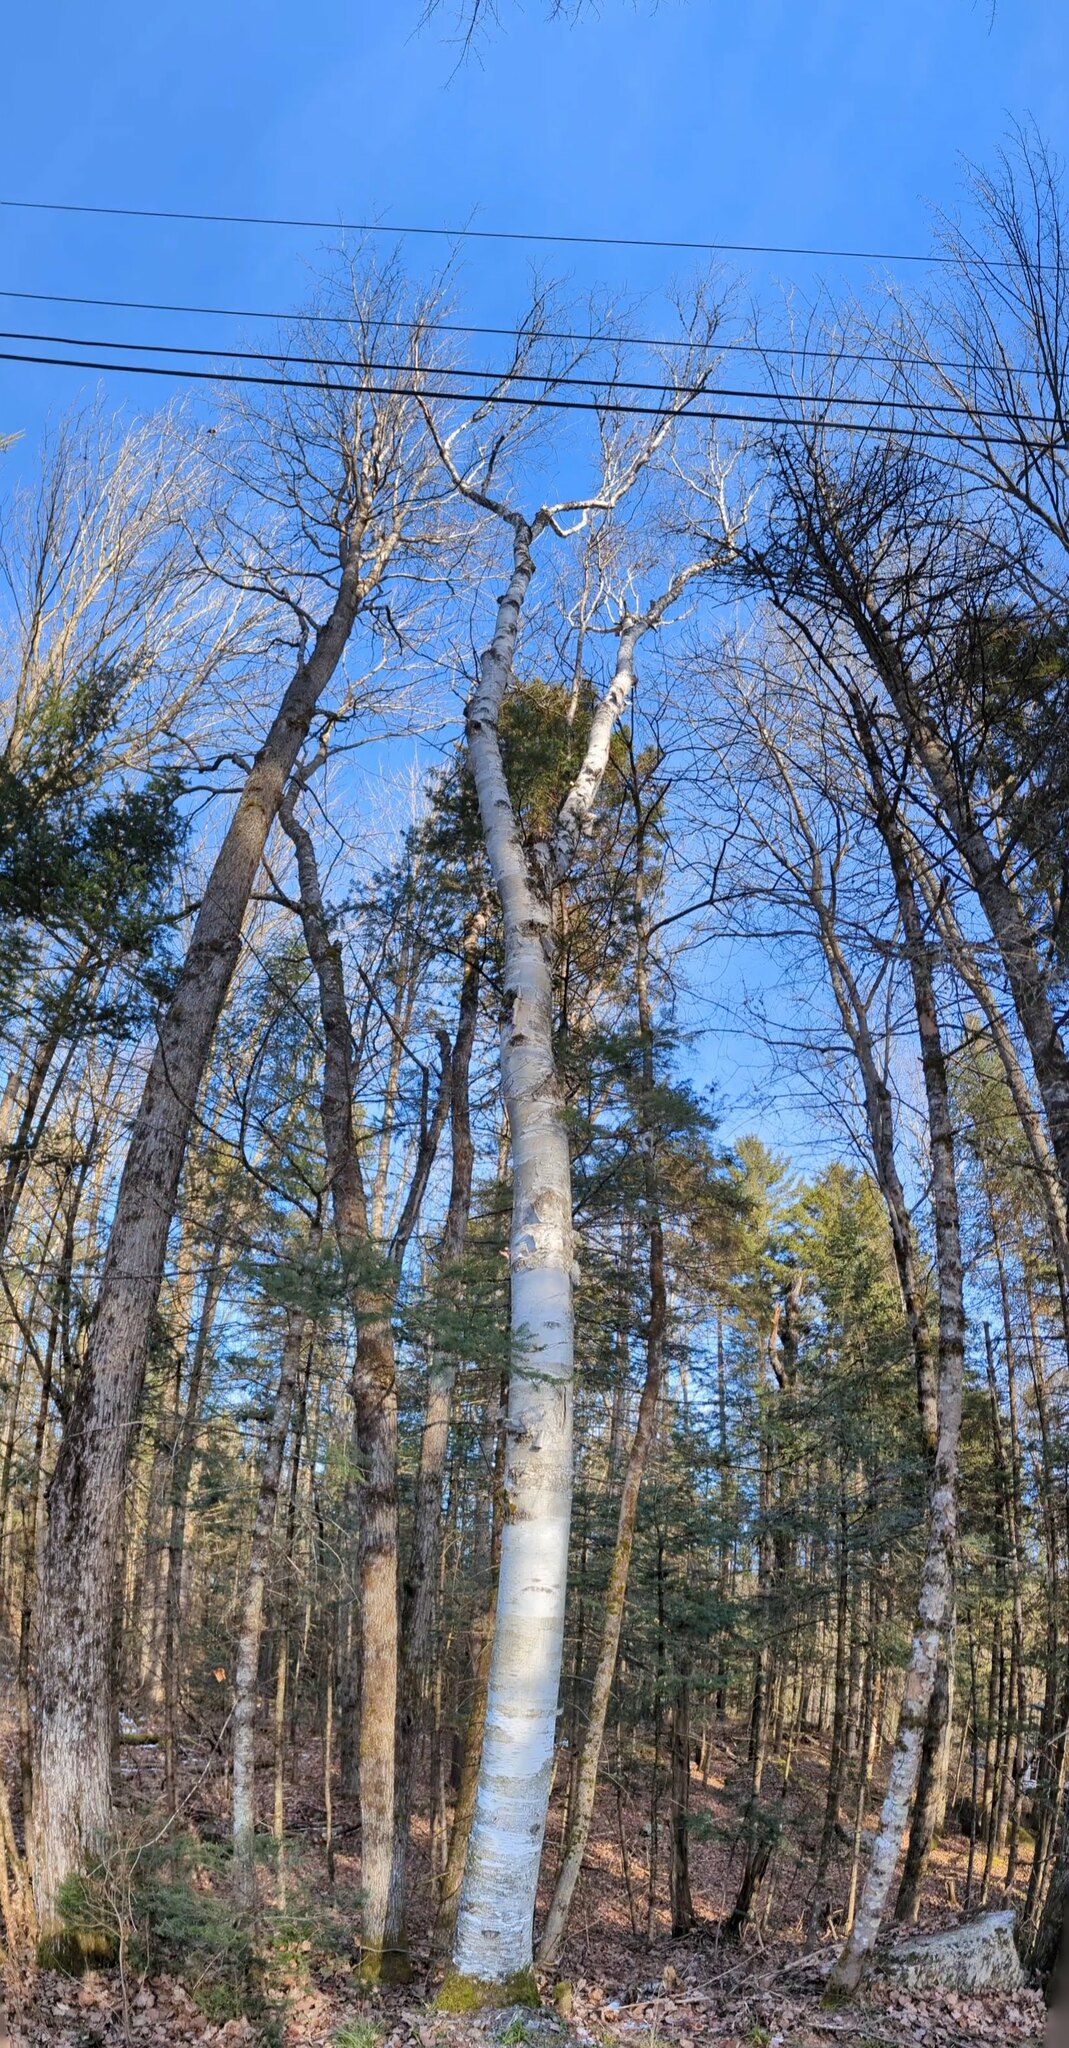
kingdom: Plantae
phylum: Tracheophyta
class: Magnoliopsida
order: Fagales
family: Betulaceae
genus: Betula
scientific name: Betula papyrifera
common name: Paper birch
